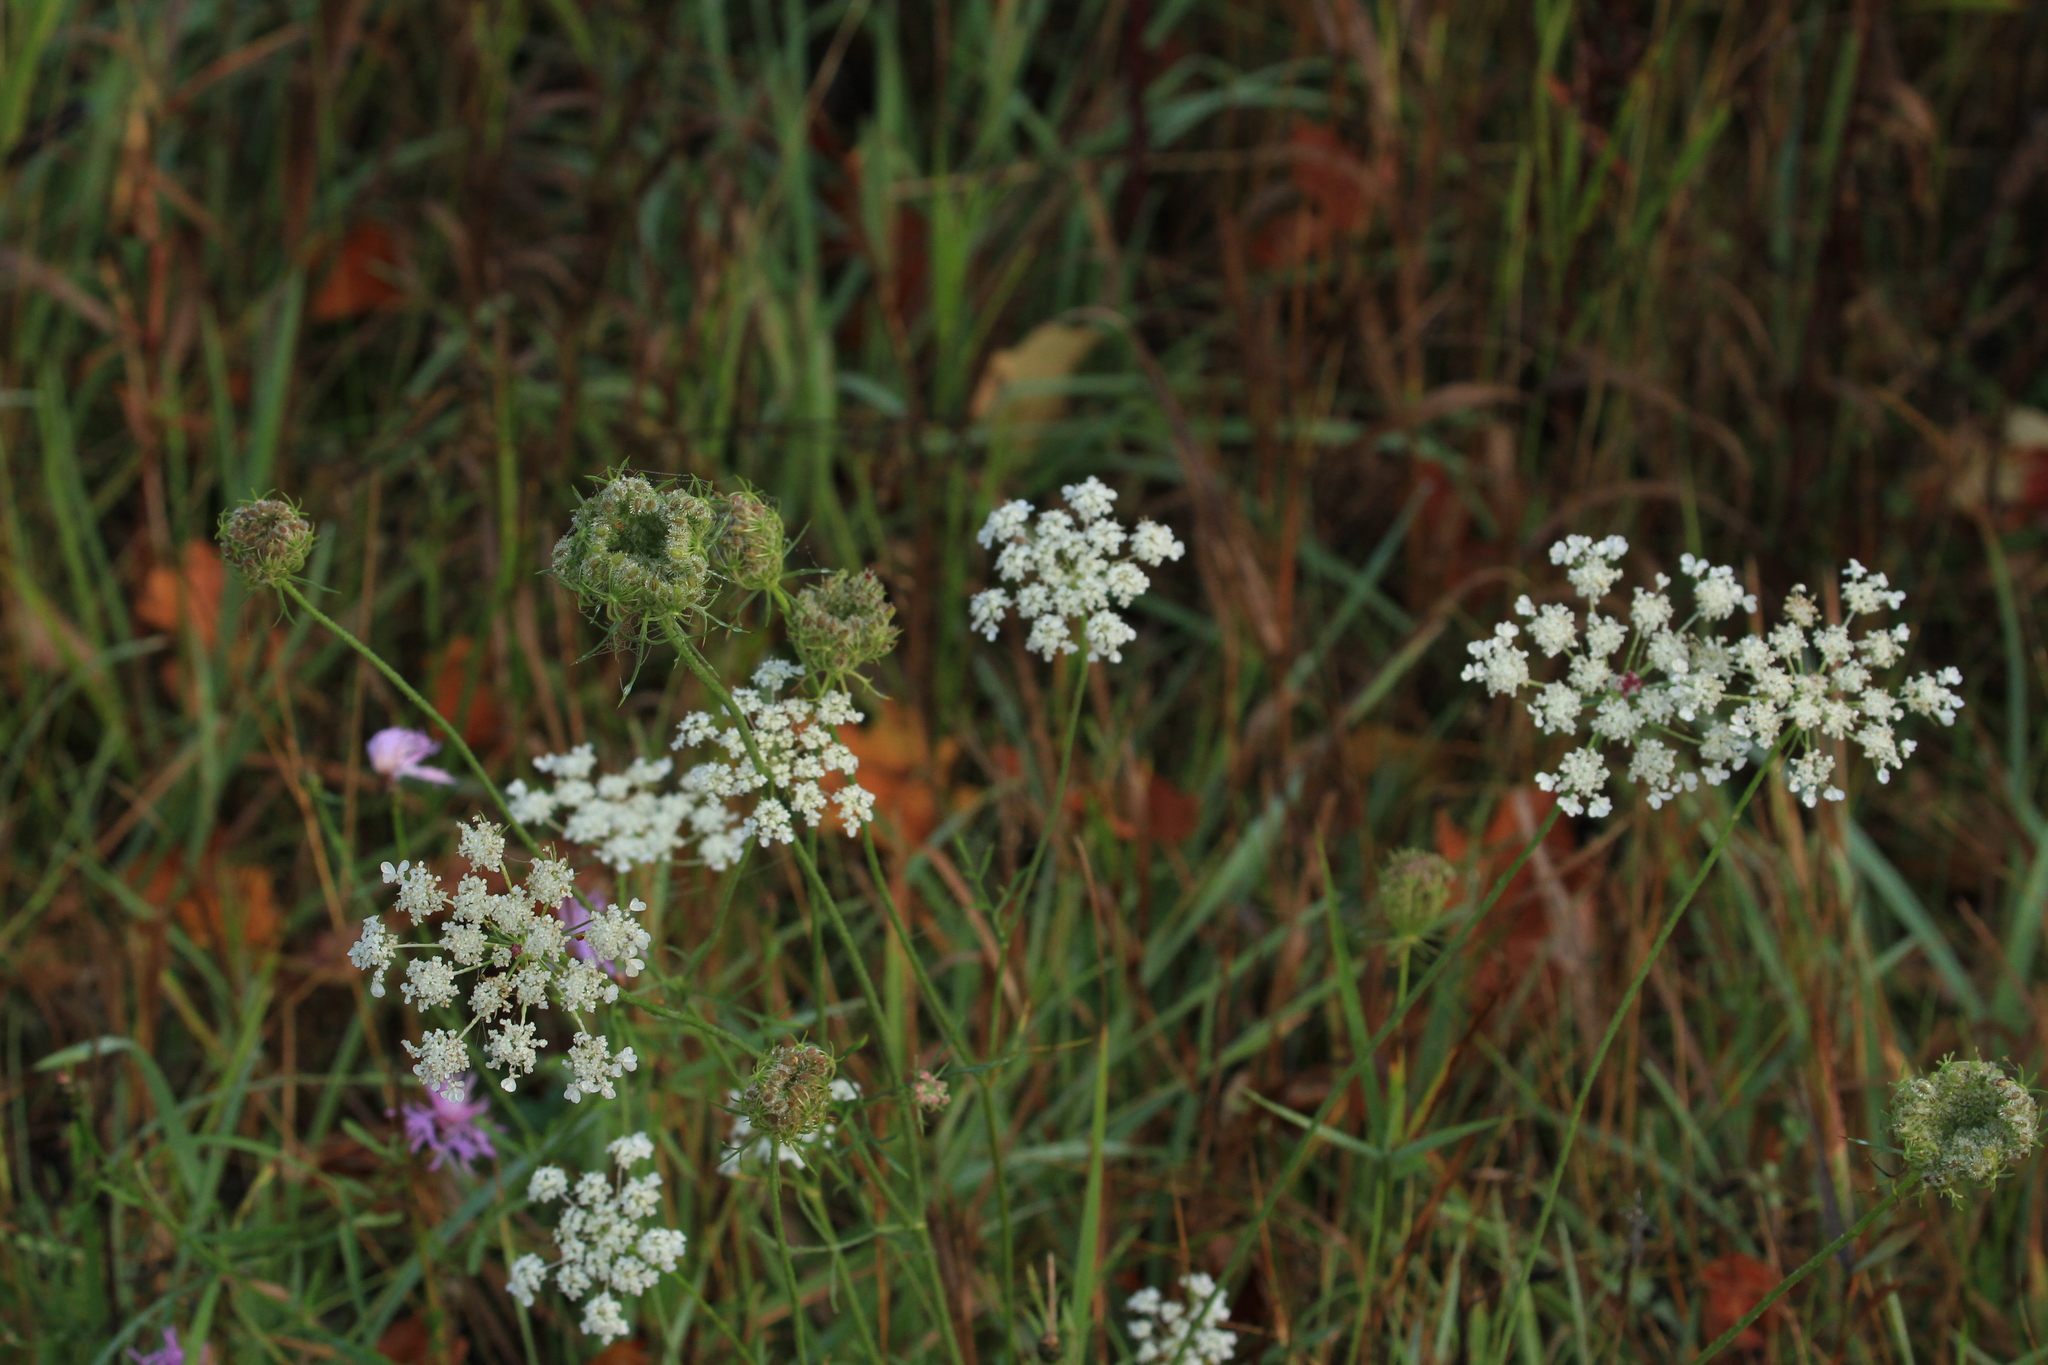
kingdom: Plantae
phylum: Tracheophyta
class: Magnoliopsida
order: Apiales
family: Apiaceae
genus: Daucus
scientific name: Daucus carota
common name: Wild carrot
